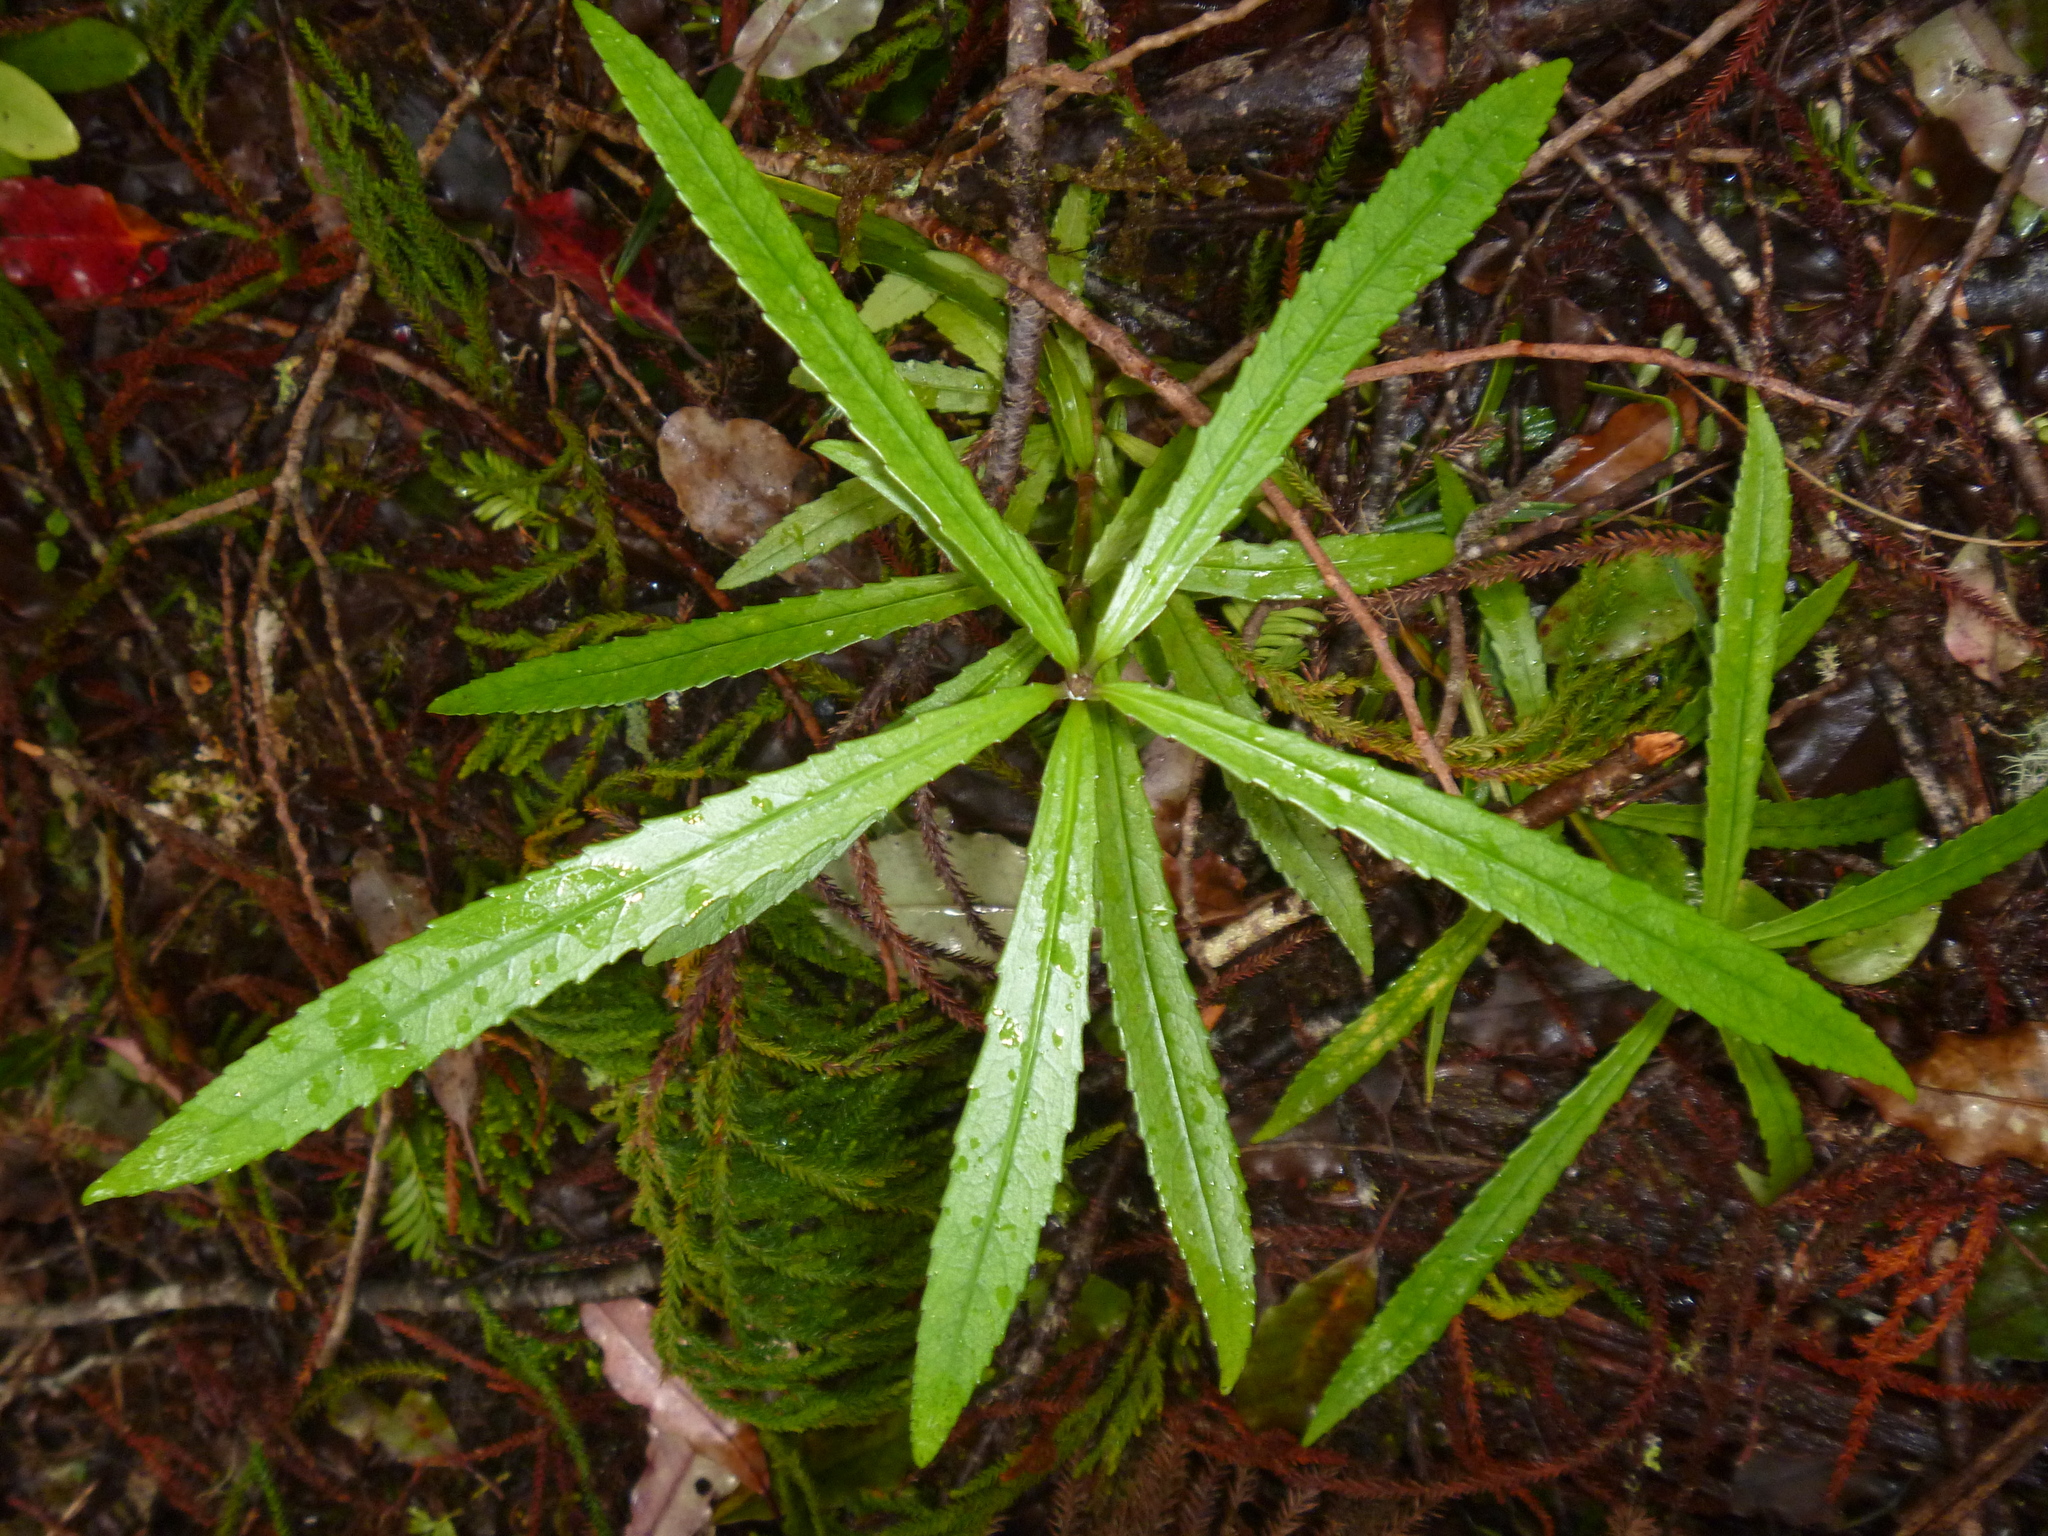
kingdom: Plantae
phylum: Tracheophyta
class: Magnoliopsida
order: Crossosomatales
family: Ixerbaceae
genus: Ixerba
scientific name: Ixerba brexioides
